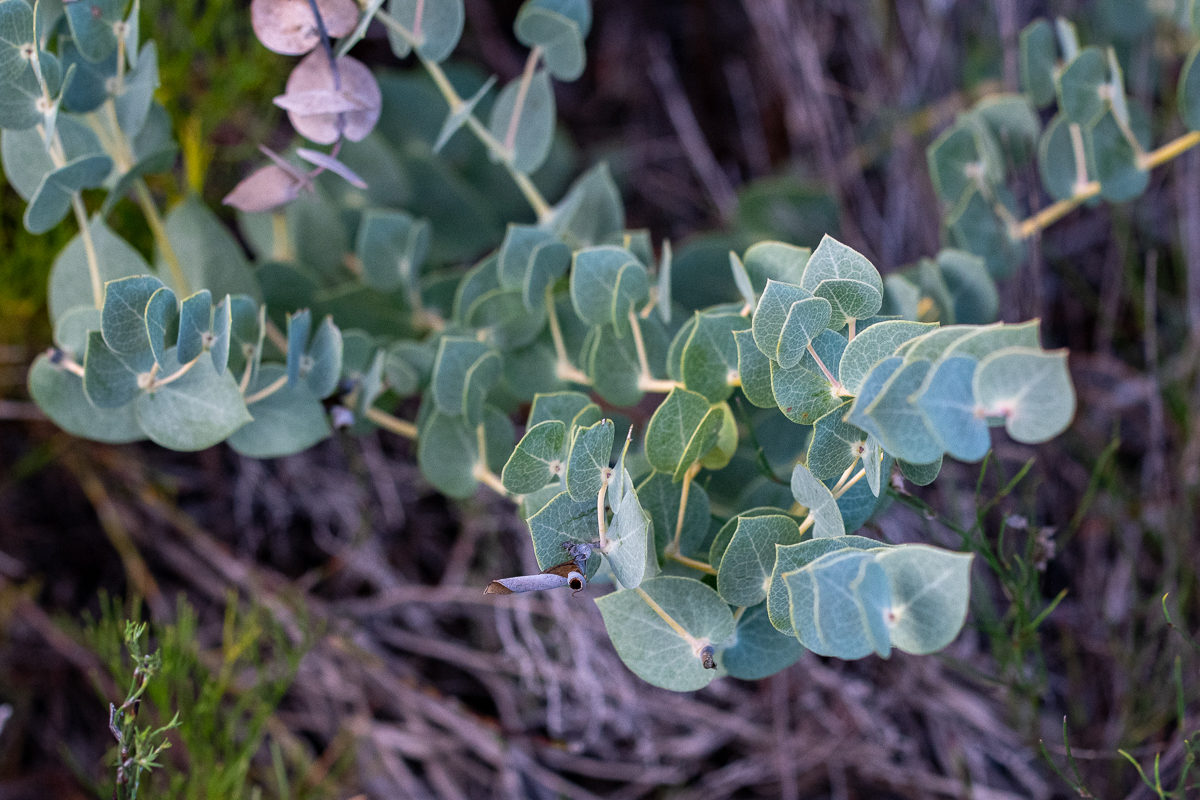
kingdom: Plantae
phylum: Tracheophyta
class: Magnoliopsida
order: Fabales
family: Fabaceae
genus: Rafnia
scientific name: Rafnia acuminata
